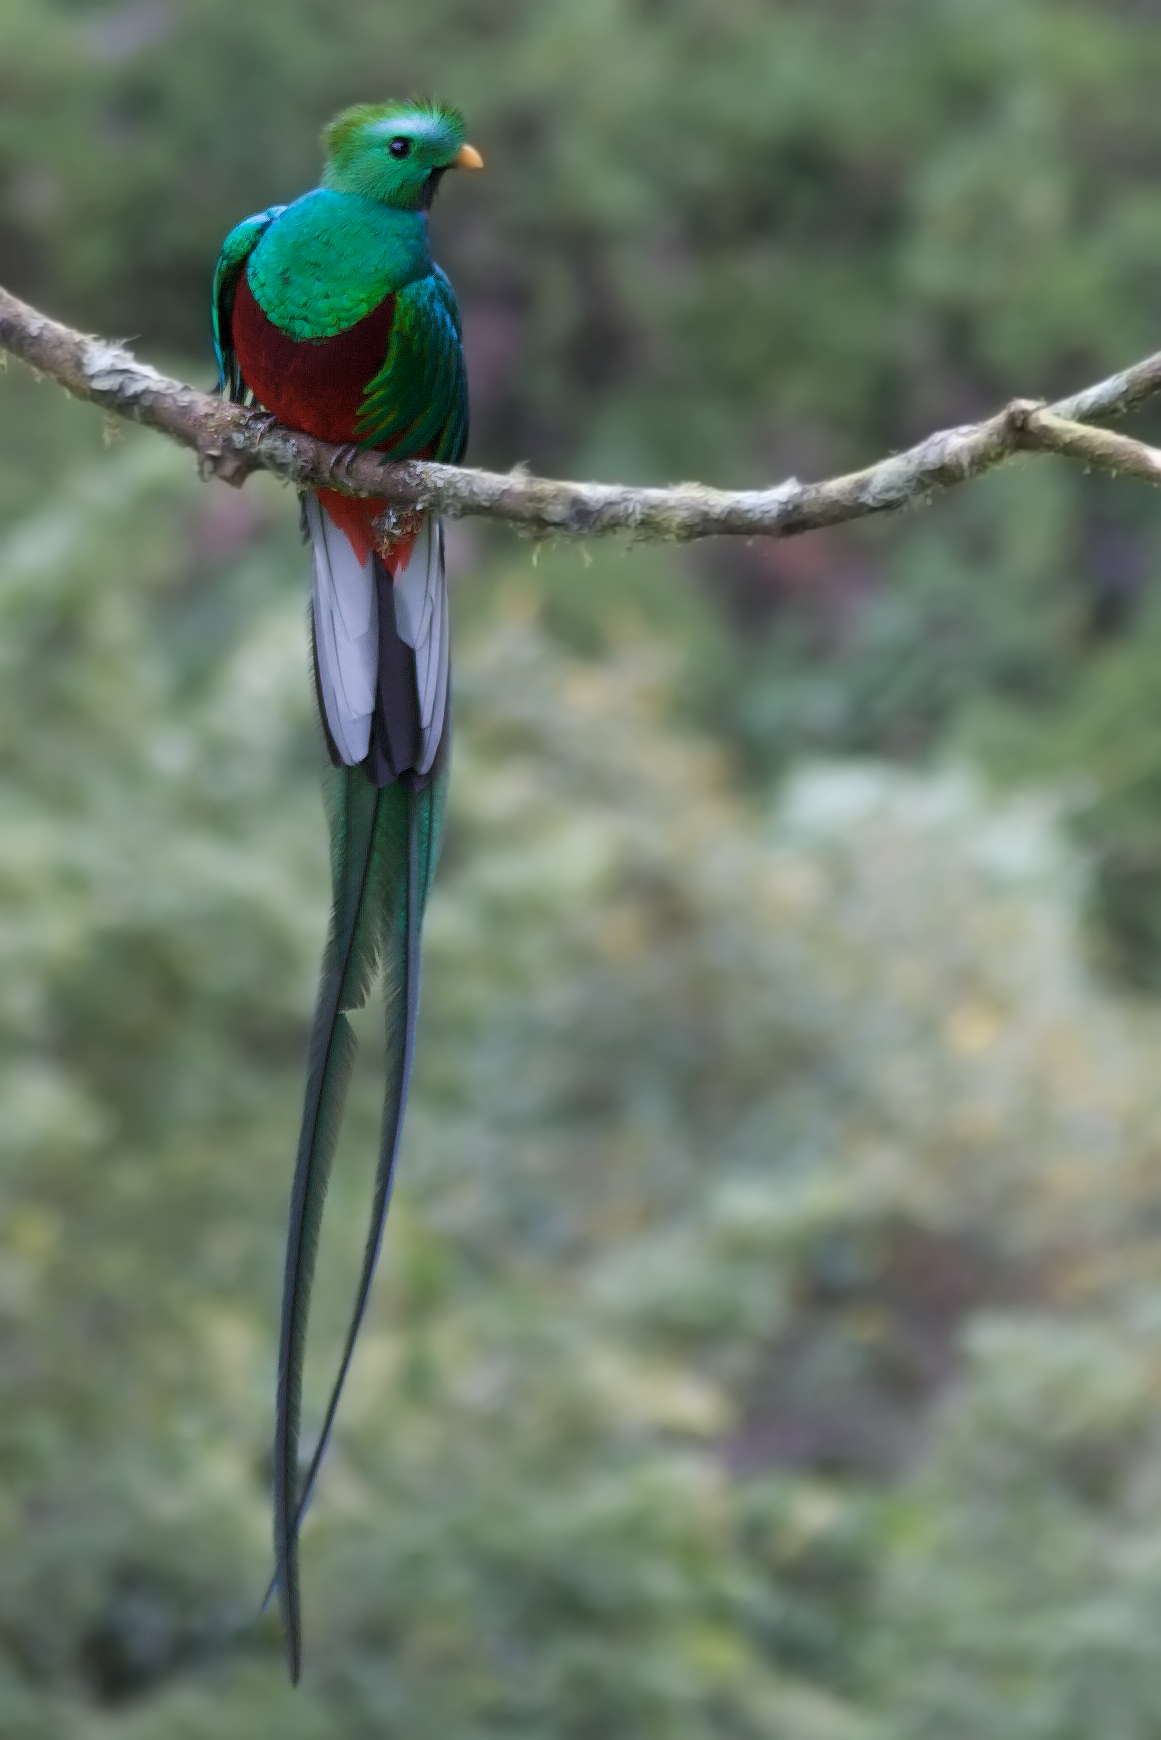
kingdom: Animalia
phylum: Chordata
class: Aves
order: Trogoniformes
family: Trogonidae
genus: Pharomachrus
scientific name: Pharomachrus mocinno
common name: Resplendent quetzal
